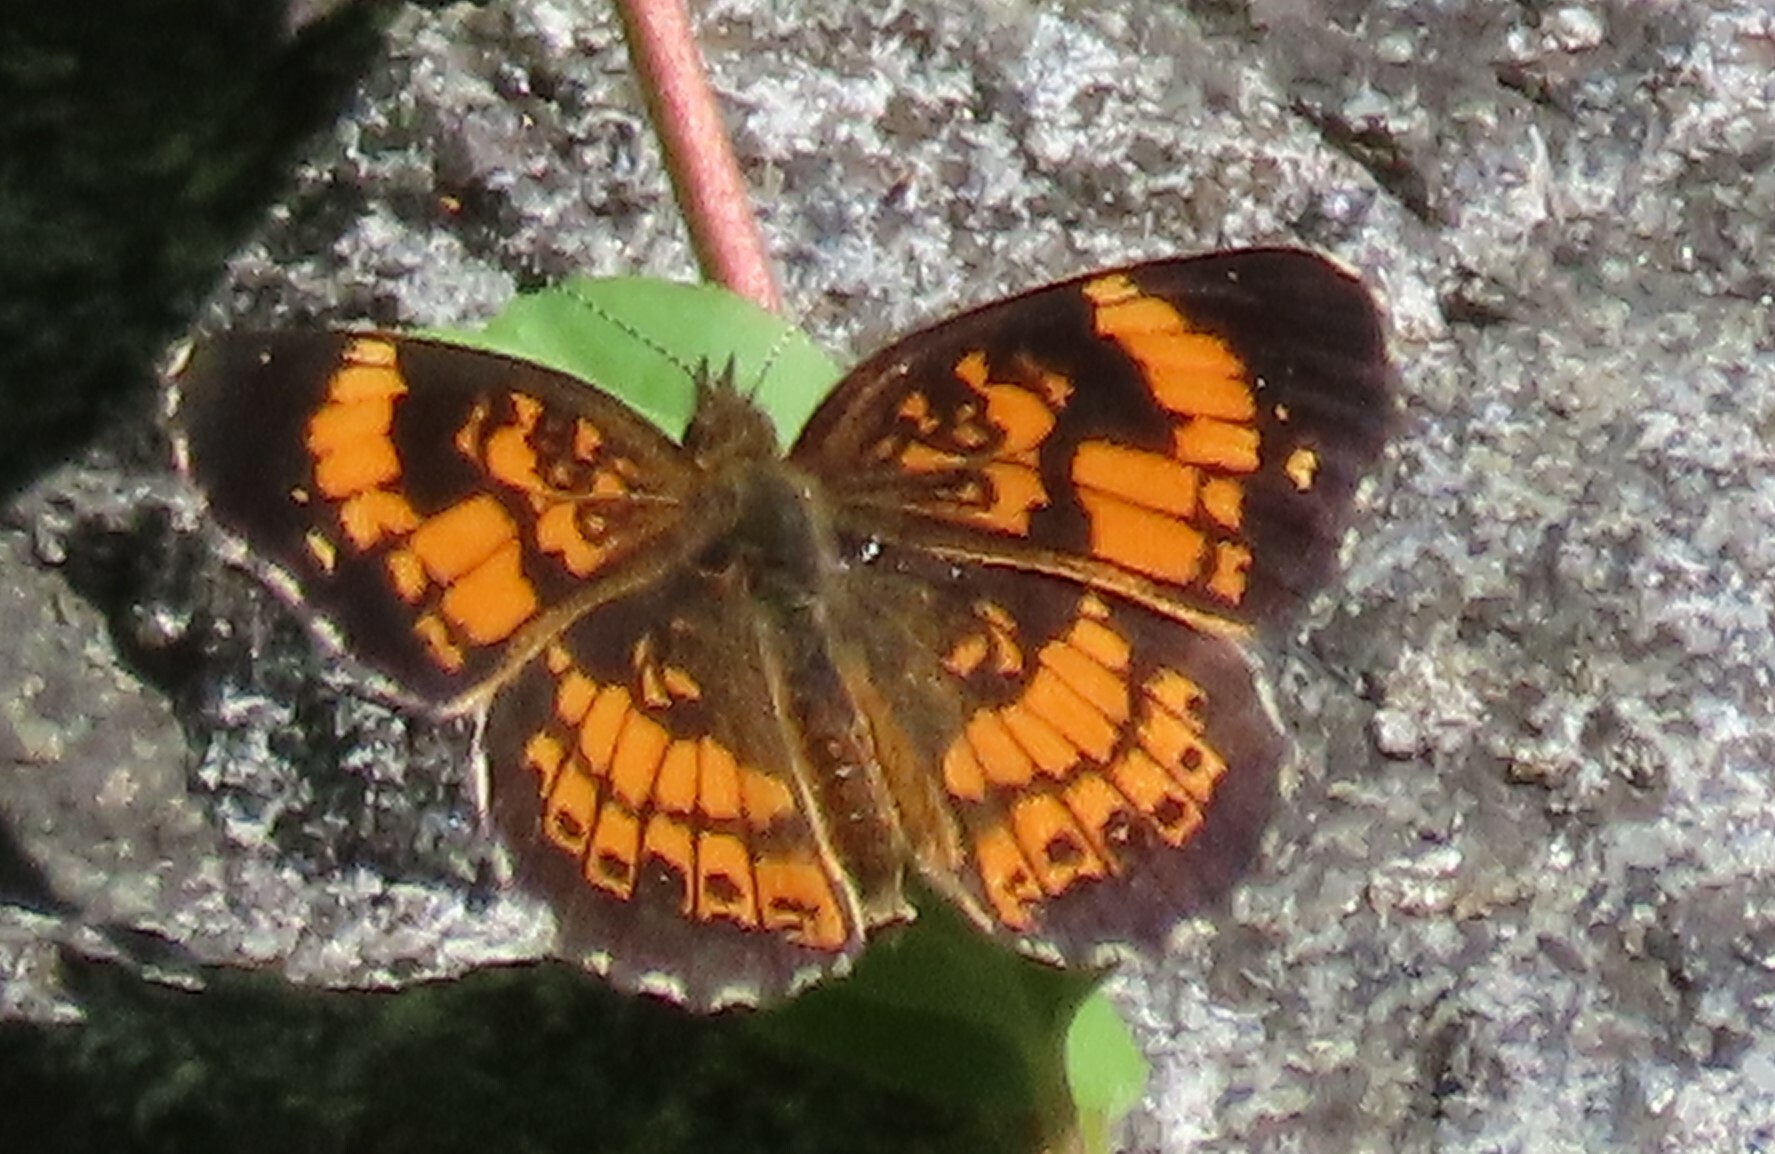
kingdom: Animalia
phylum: Arthropoda
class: Insecta
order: Lepidoptera
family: Nymphalidae
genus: Chlosyne
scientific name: Chlosyne nycteis
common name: Silvery checkerspot
